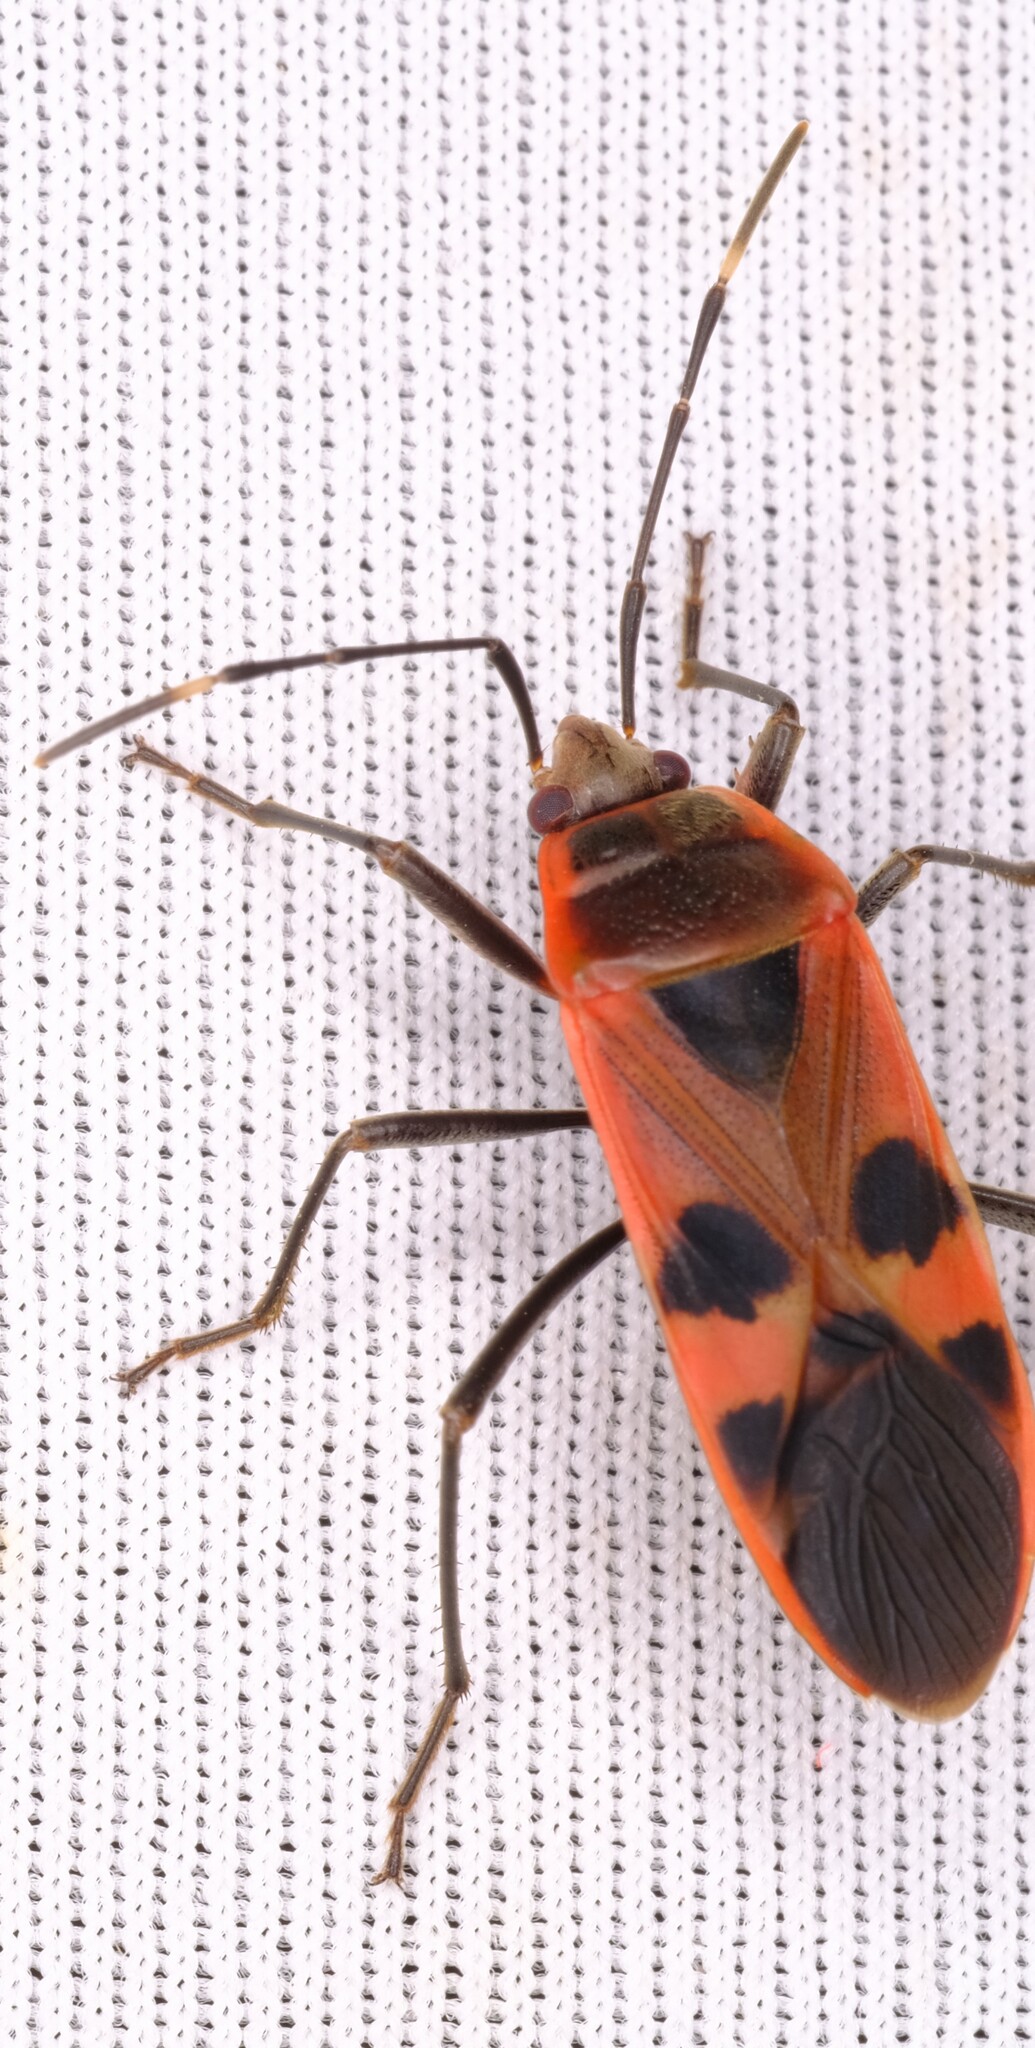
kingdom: Animalia
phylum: Arthropoda
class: Insecta
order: Hemiptera
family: Largidae
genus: Physopelta
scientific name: Physopelta gutta
